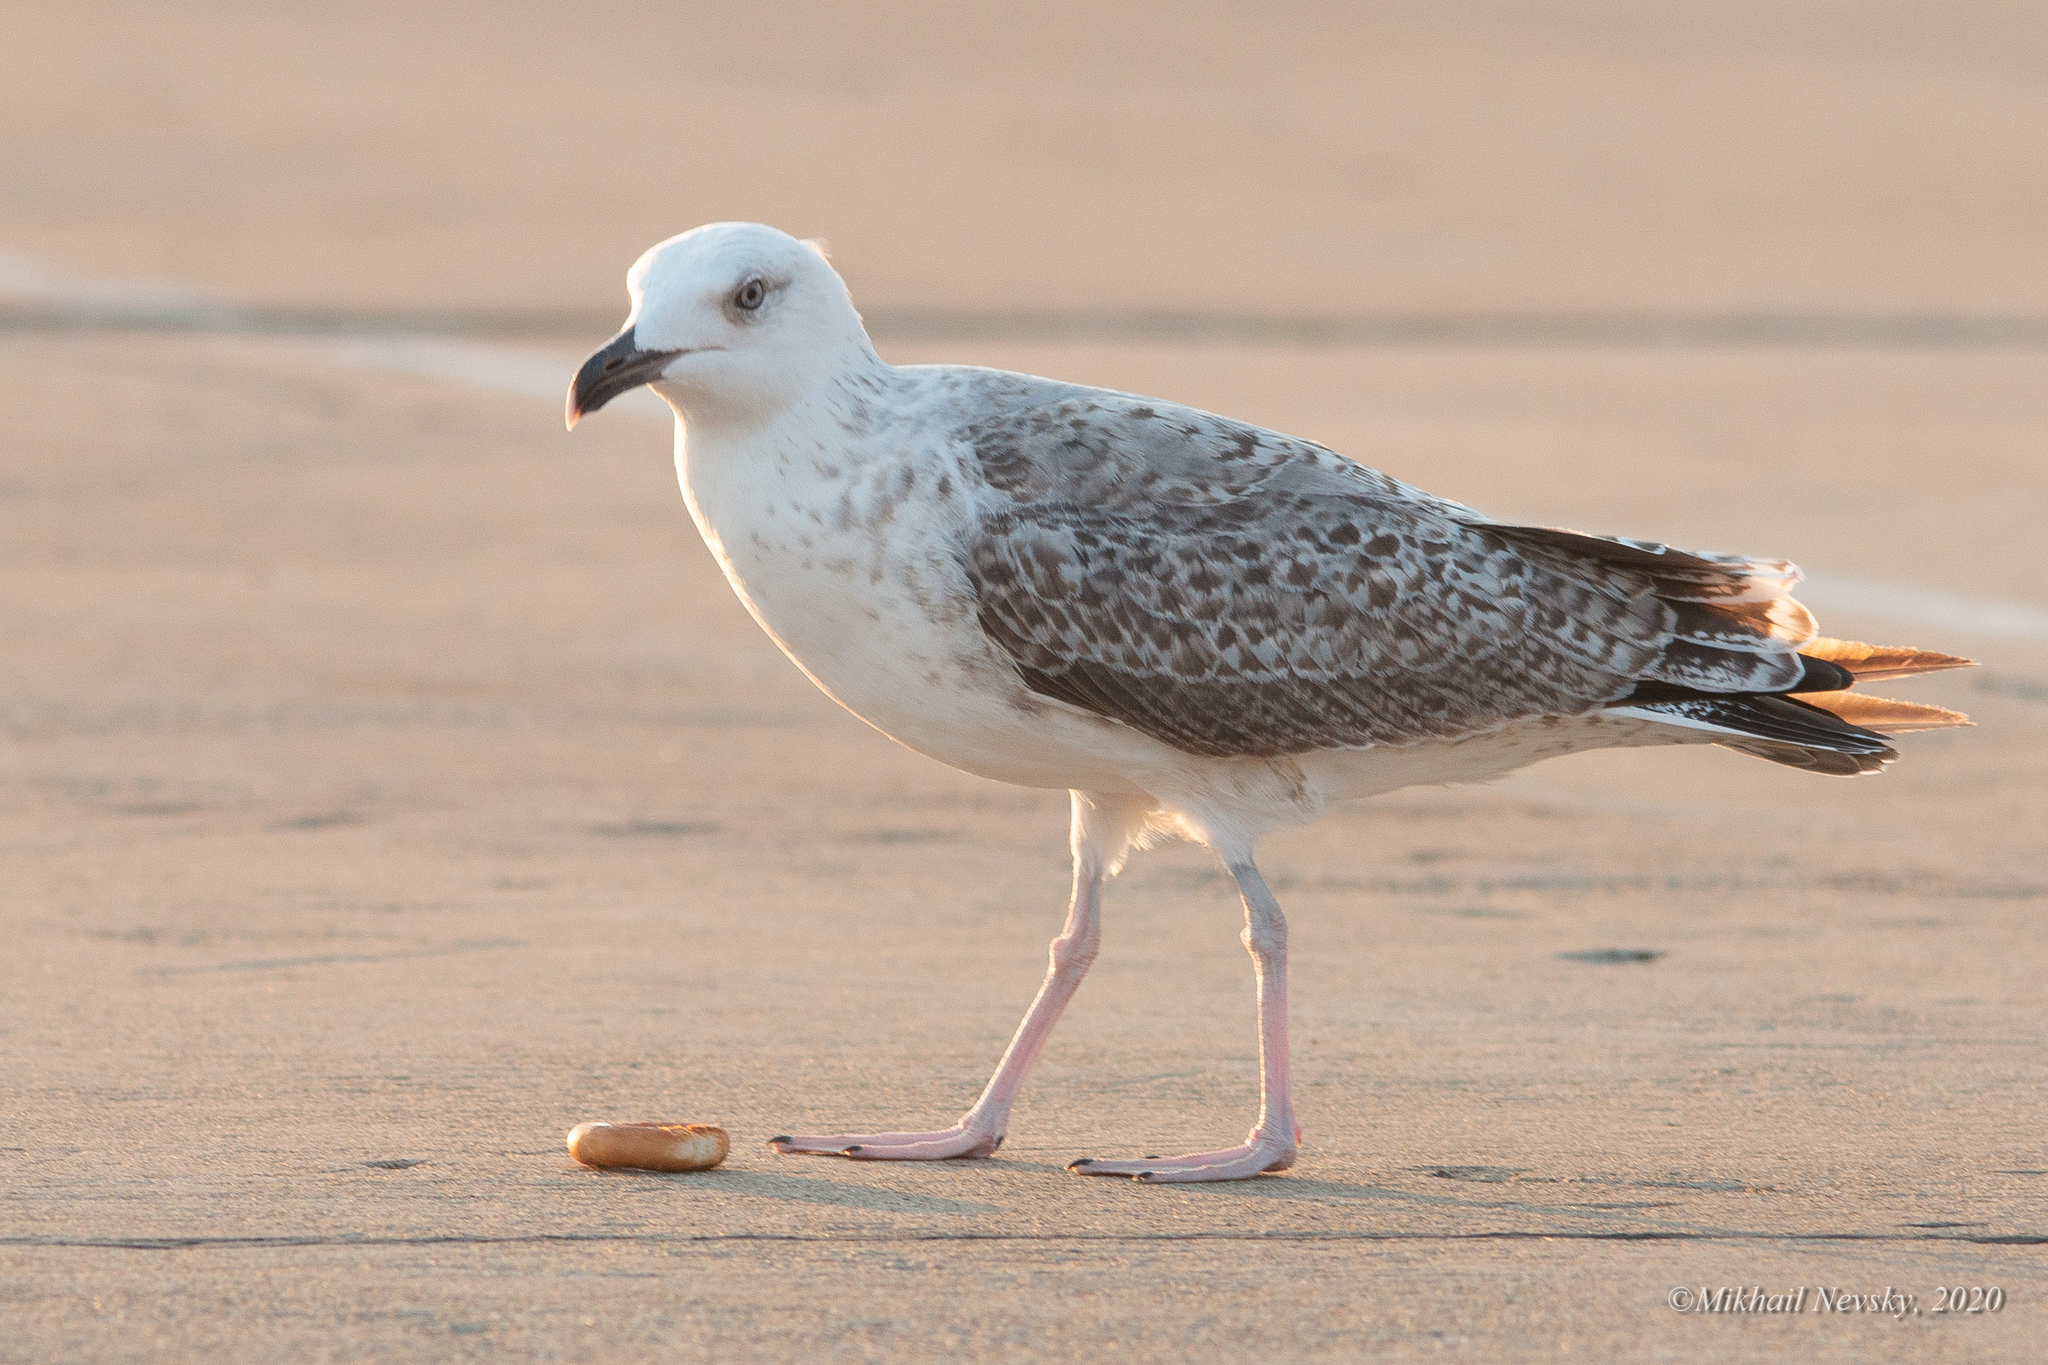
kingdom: Animalia
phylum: Chordata
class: Aves
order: Charadriiformes
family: Laridae
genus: Larus
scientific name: Larus michahellis
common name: Yellow-legged gull
